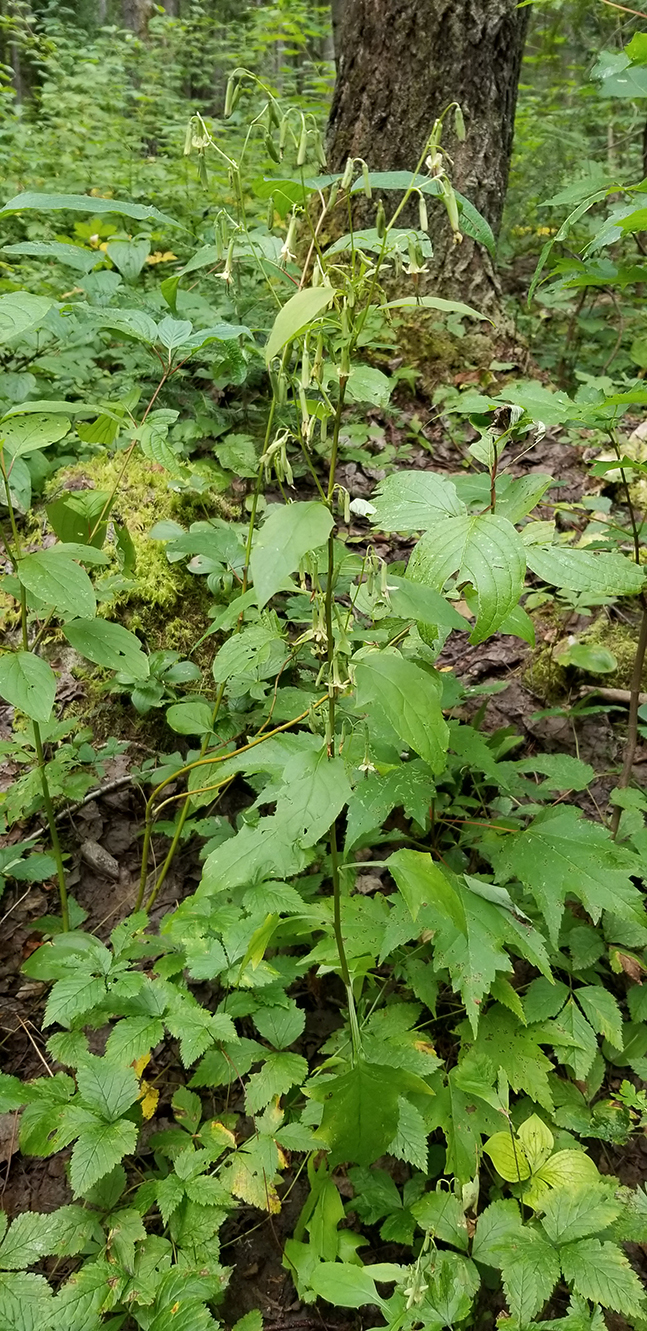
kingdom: Plantae
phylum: Tracheophyta
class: Magnoliopsida
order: Asterales
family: Asteraceae
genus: Nabalus
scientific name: Nabalus altissima
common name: Tall rattlesnakeroot
